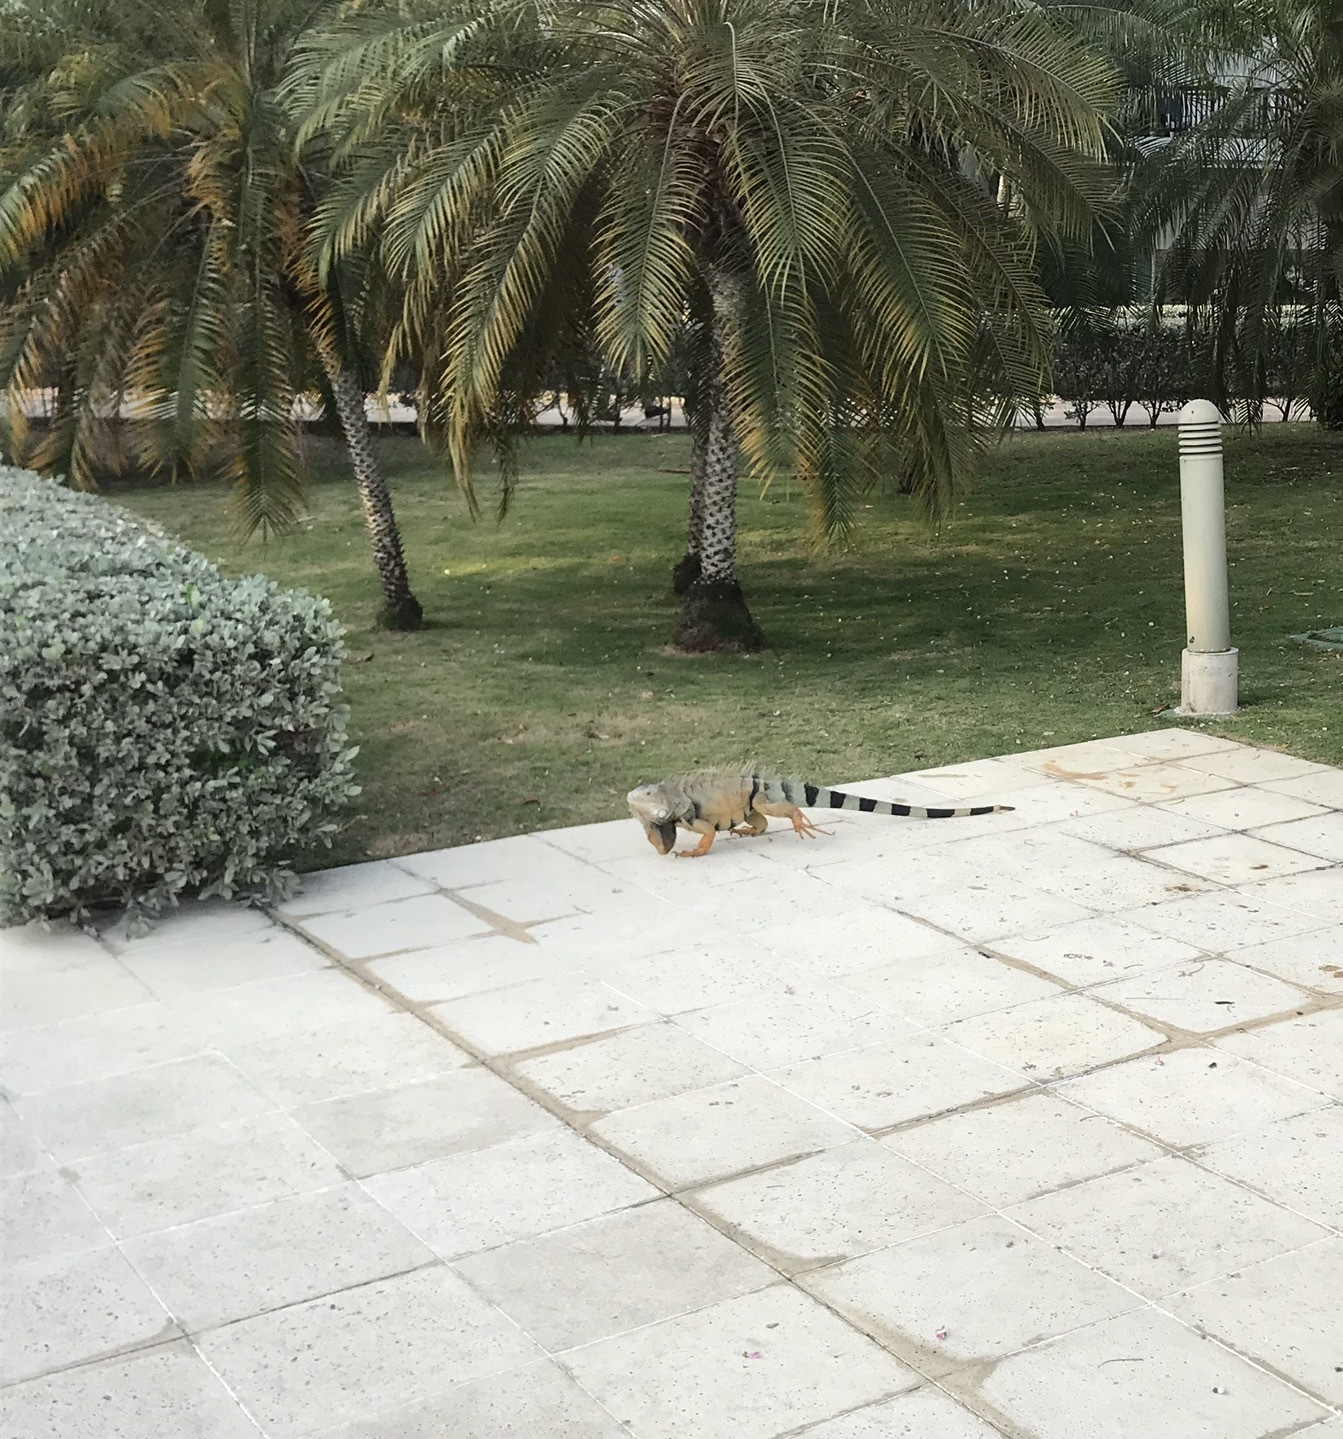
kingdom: Animalia
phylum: Chordata
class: Squamata
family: Iguanidae
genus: Iguana
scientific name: Iguana iguana
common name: Green iguana
